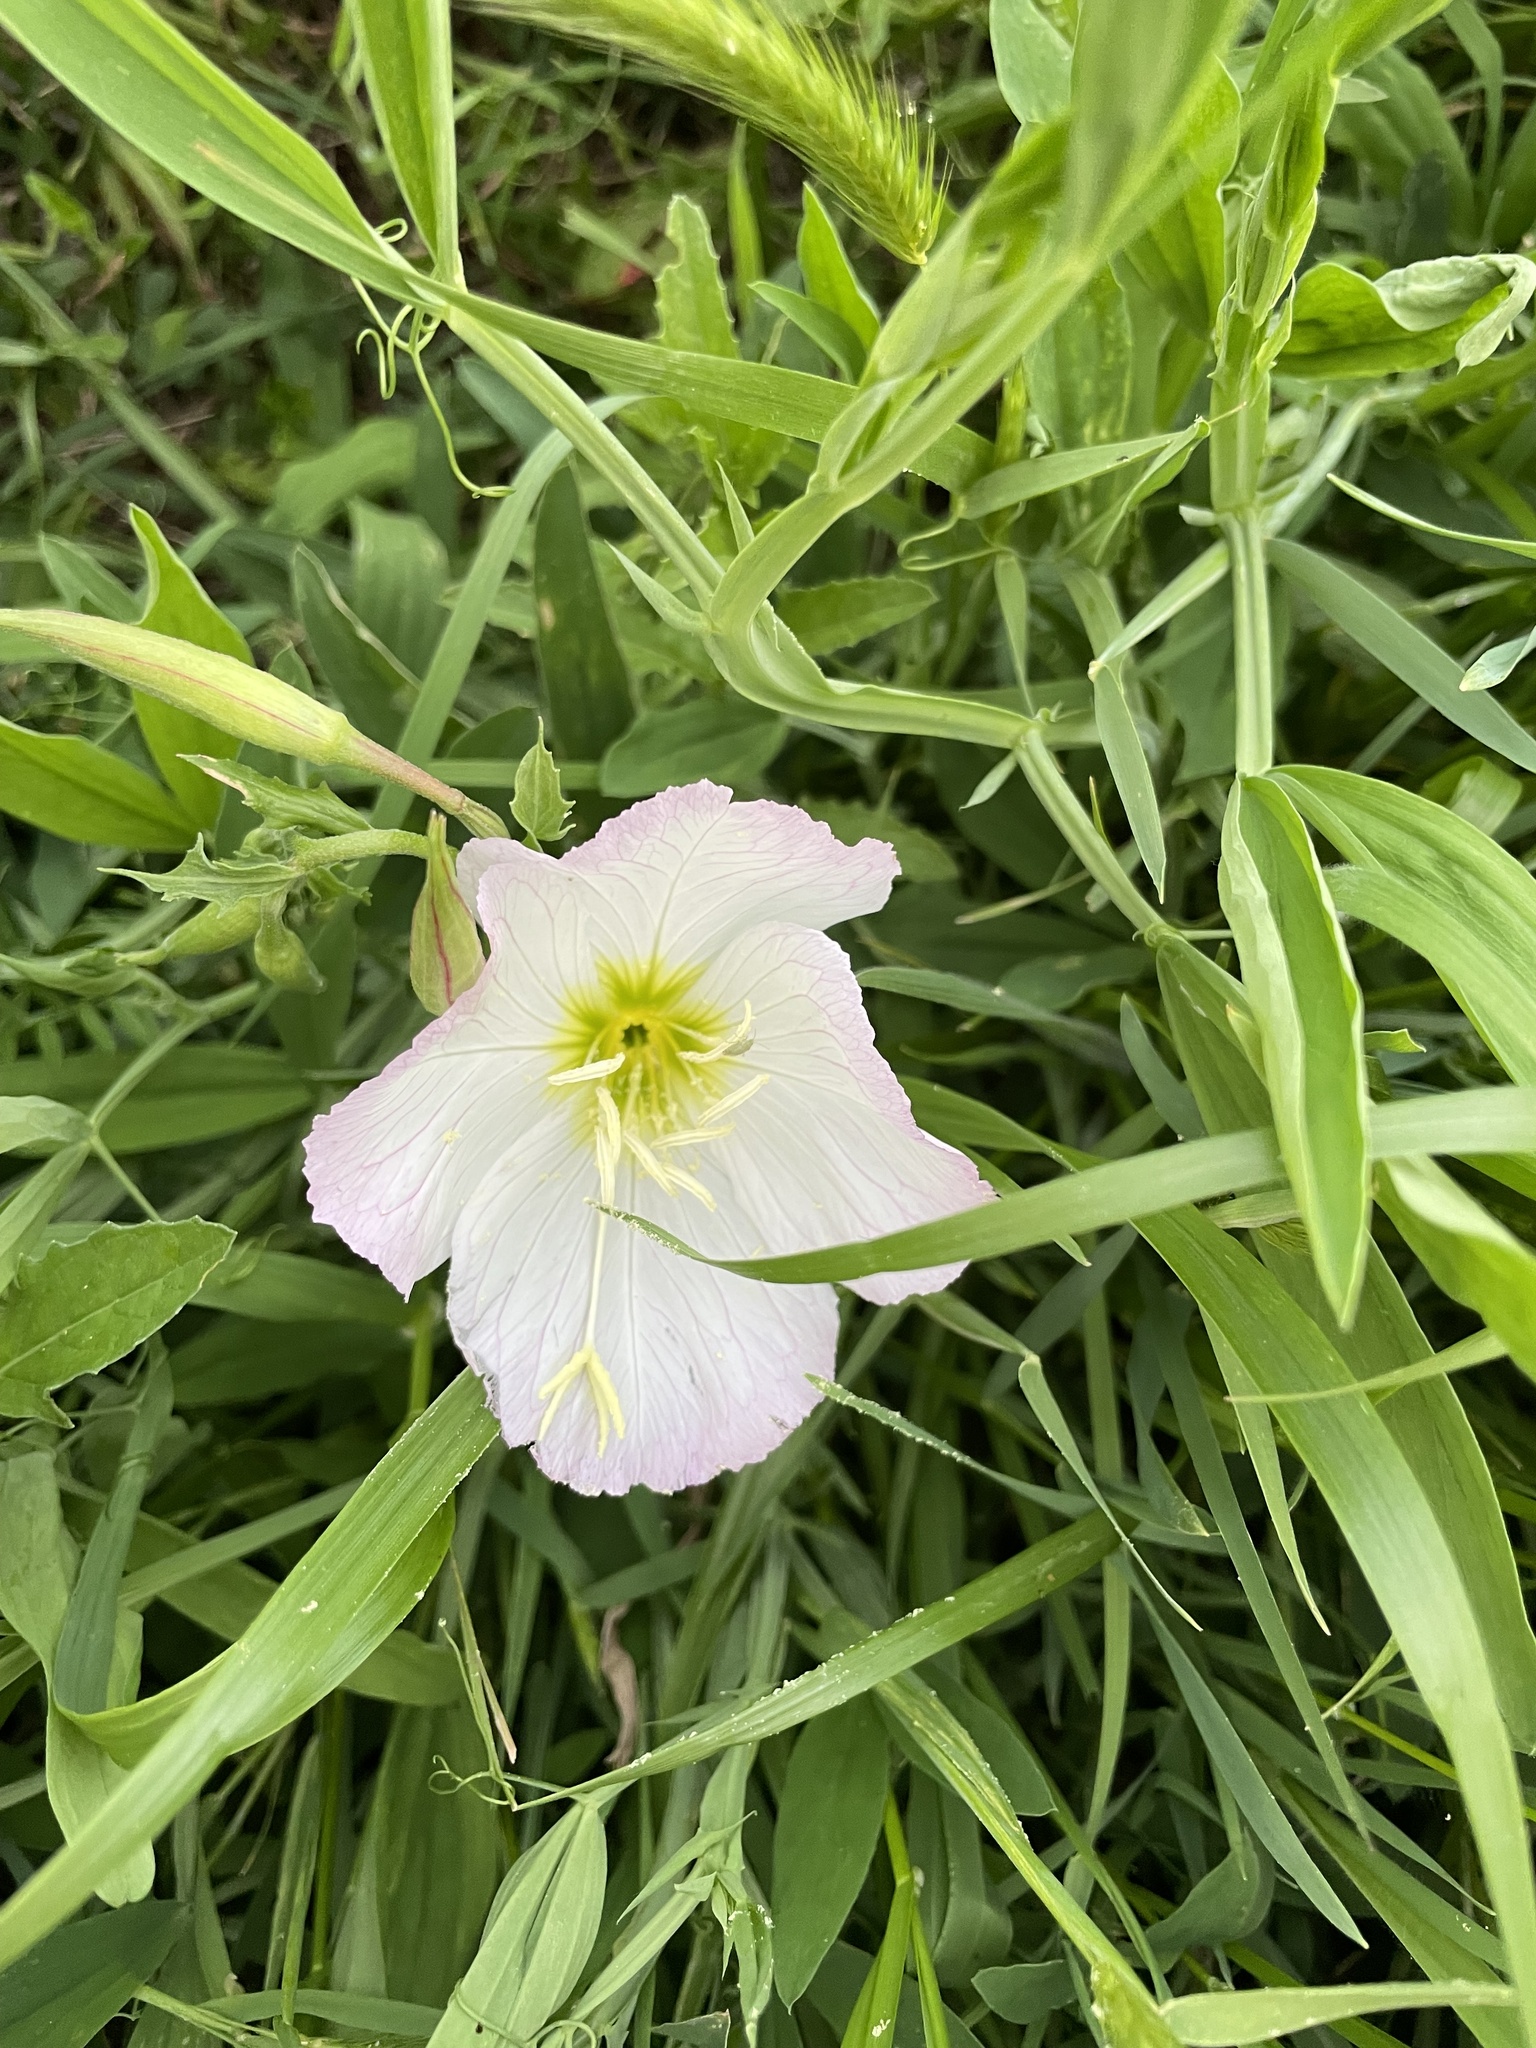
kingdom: Plantae
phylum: Tracheophyta
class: Magnoliopsida
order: Myrtales
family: Onagraceae
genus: Oenothera
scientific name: Oenothera speciosa
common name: White evening-primrose
